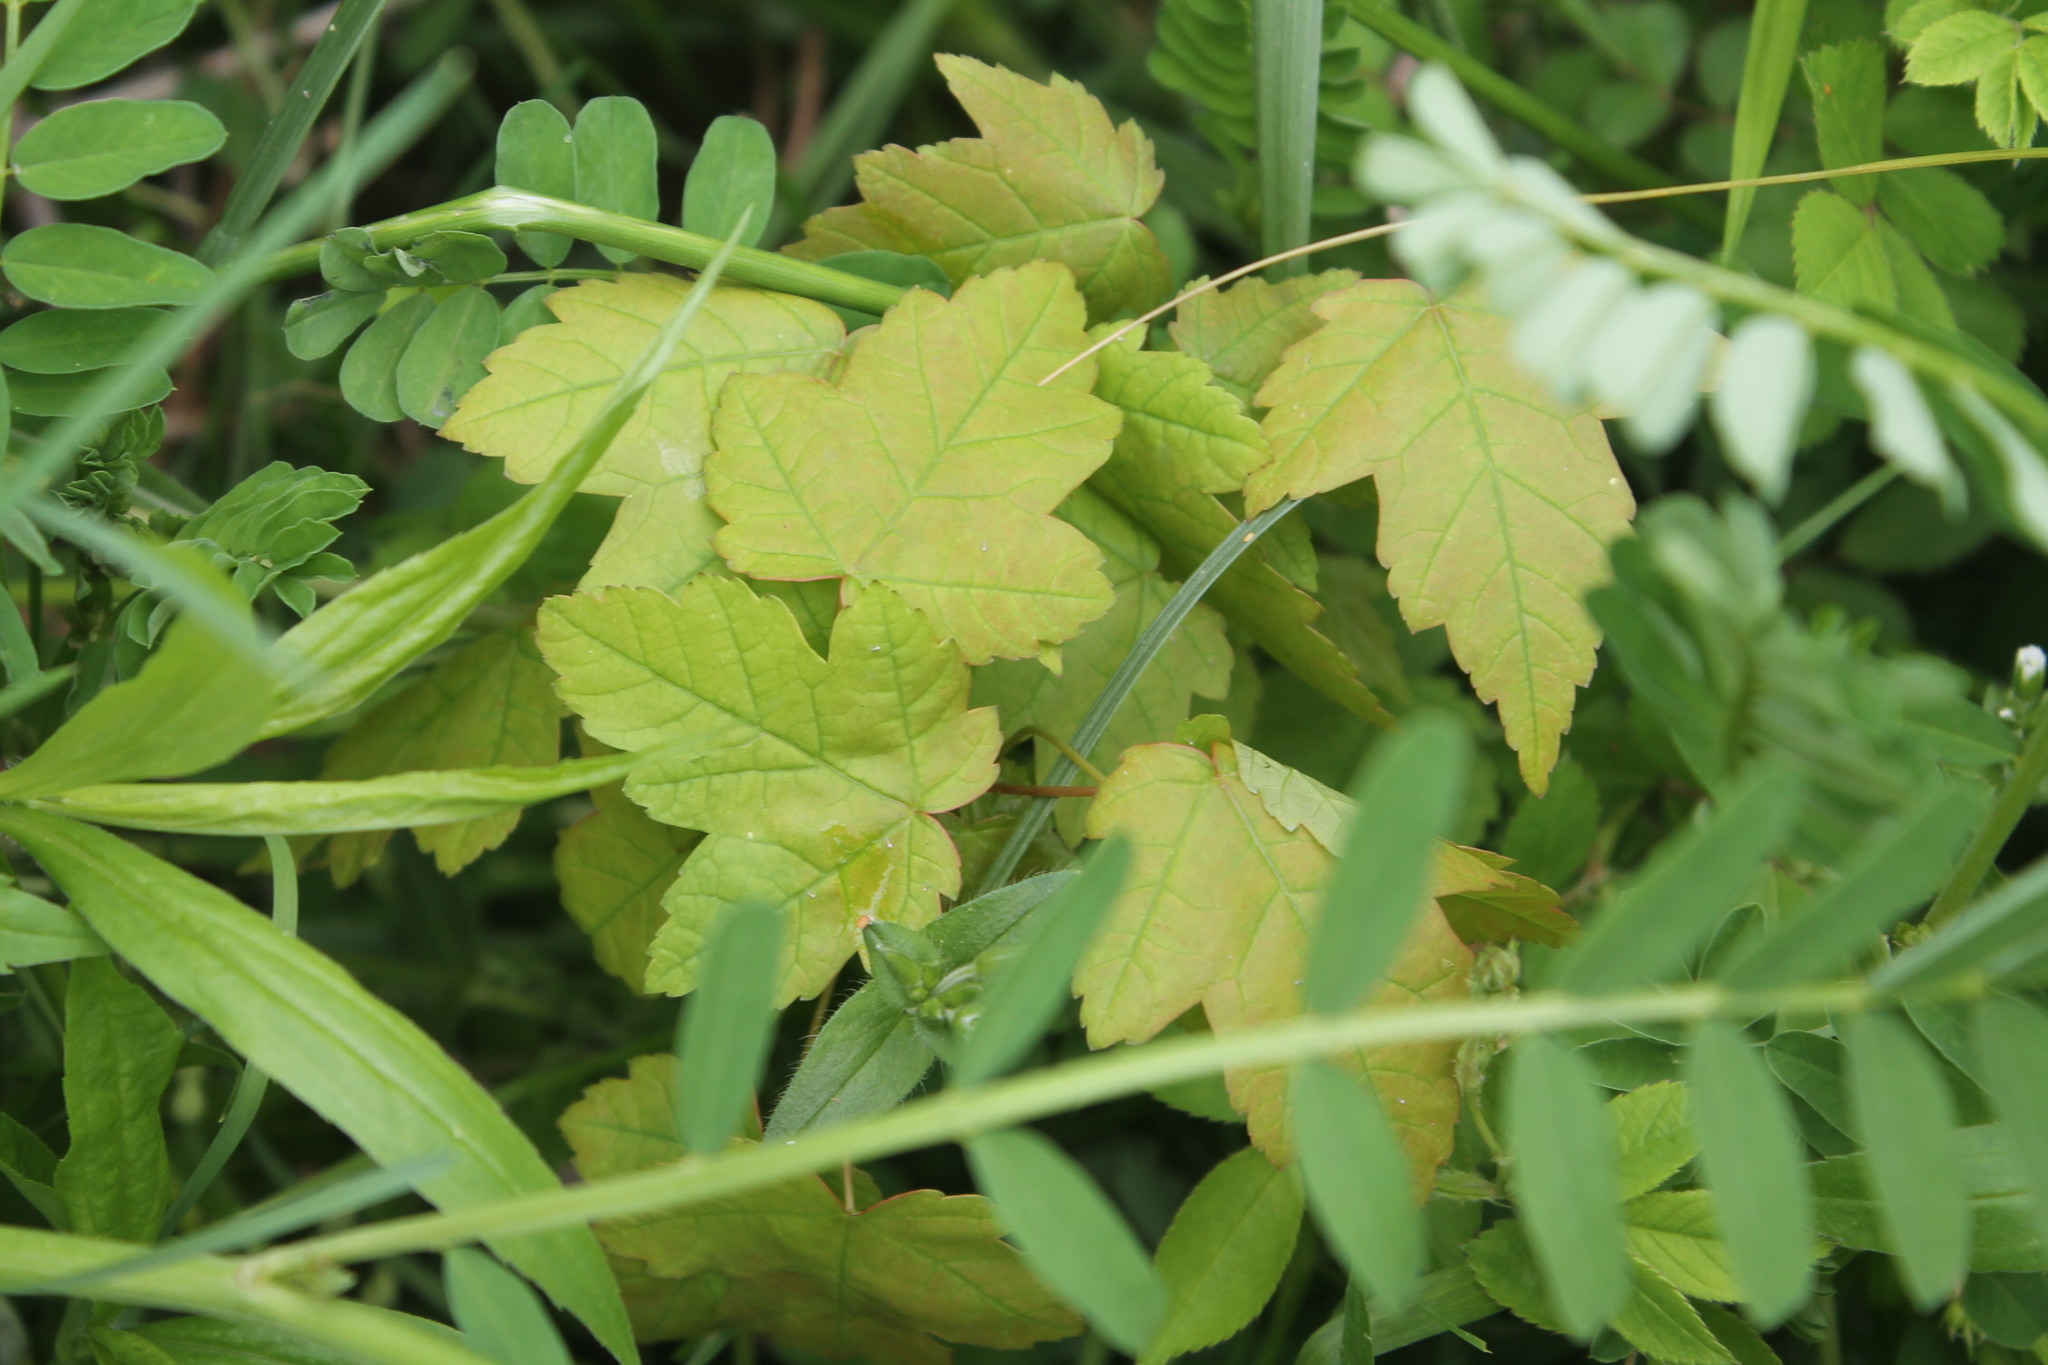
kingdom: Plantae
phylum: Tracheophyta
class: Magnoliopsida
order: Sapindales
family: Sapindaceae
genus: Acer
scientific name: Acer rubrum
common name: Red maple
